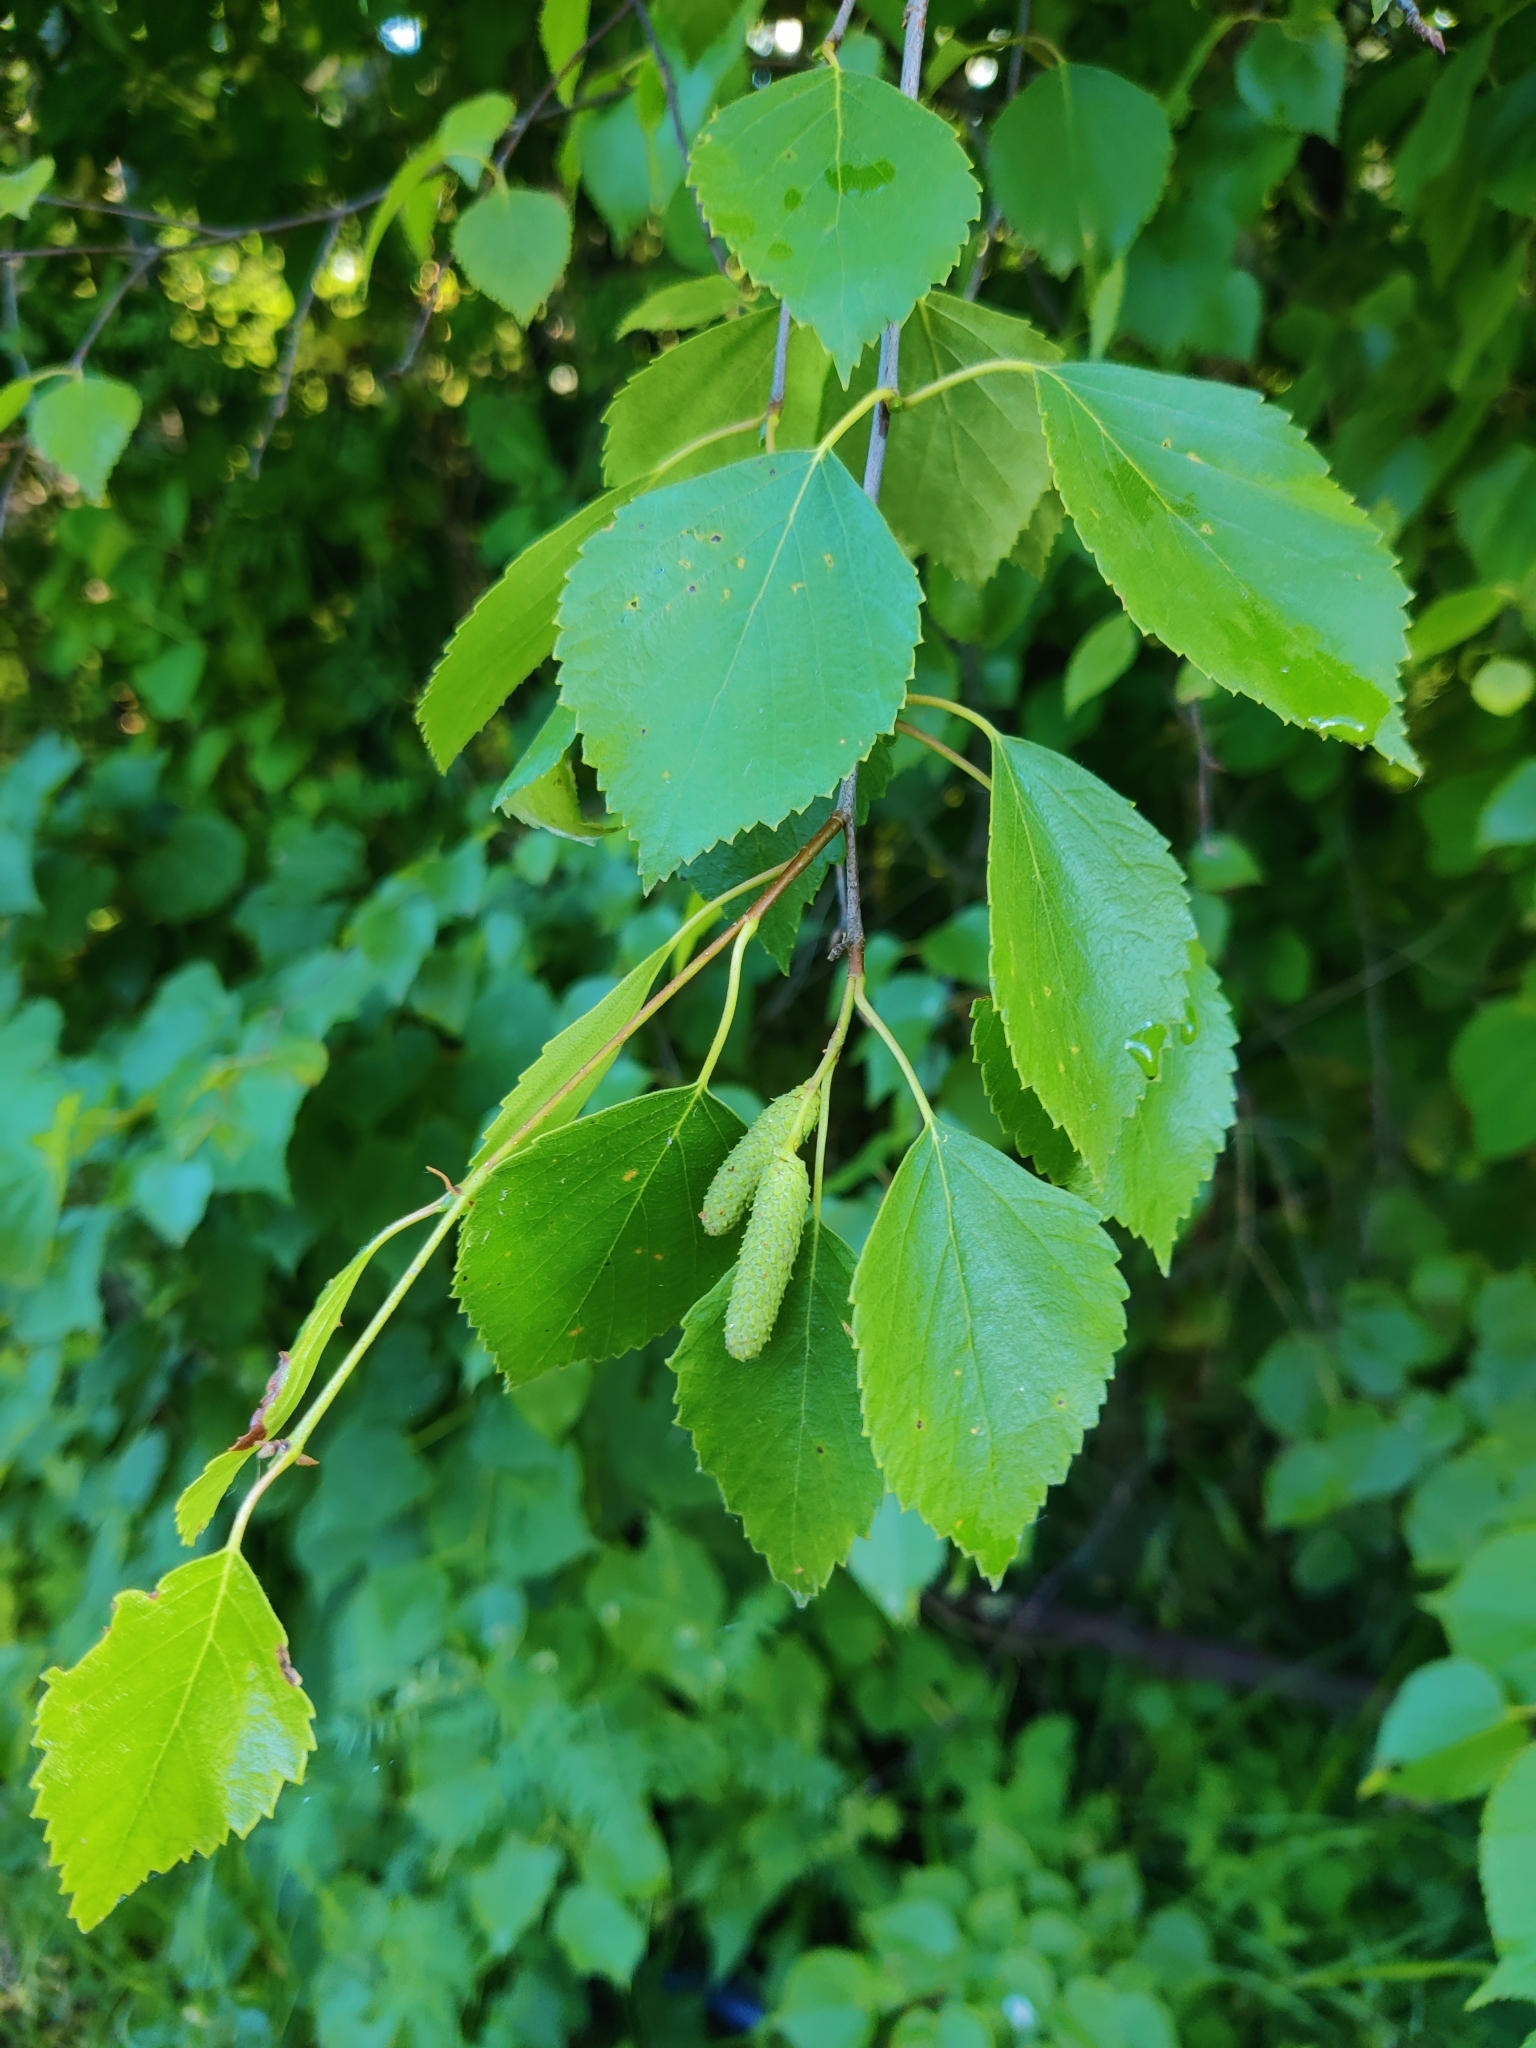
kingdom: Plantae
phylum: Tracheophyta
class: Magnoliopsida
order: Fagales
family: Betulaceae
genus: Betula
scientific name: Betula pendula
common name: Silver birch
